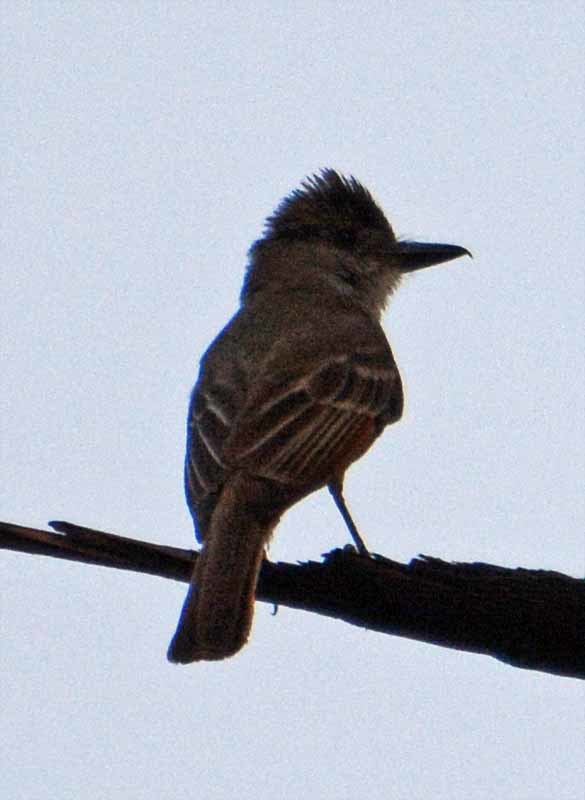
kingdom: Animalia
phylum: Chordata
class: Aves
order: Passeriformes
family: Tyrannidae
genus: Myiarchus
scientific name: Myiarchus tyrannulus
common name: Brown-crested flycatcher
